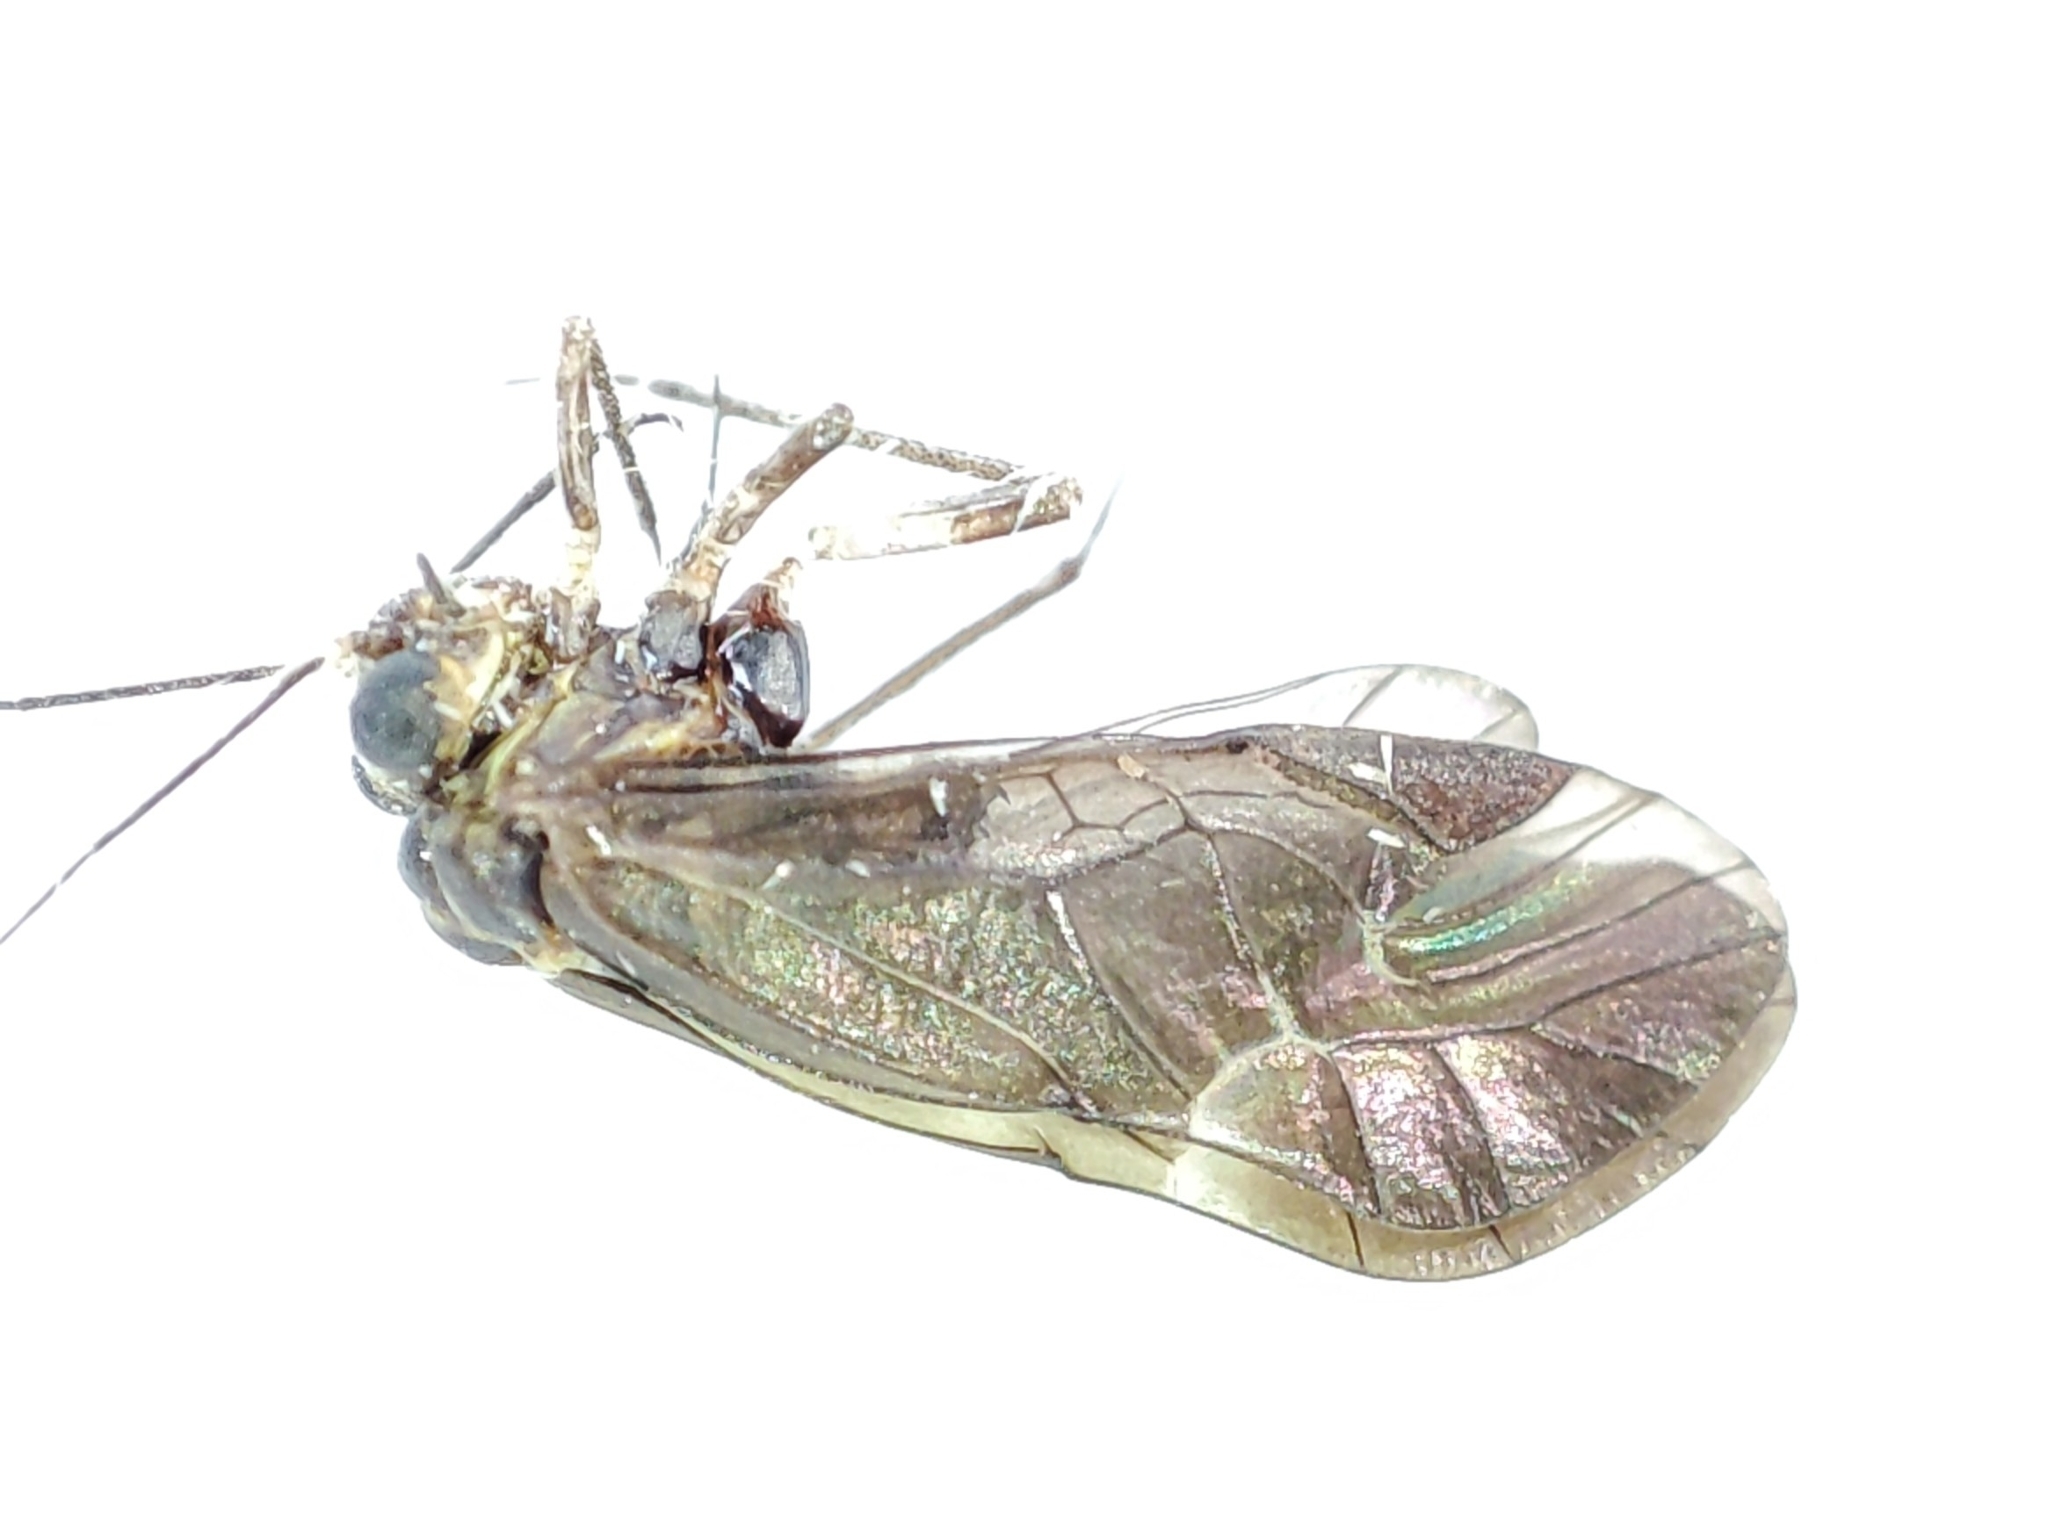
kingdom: Animalia
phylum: Arthropoda
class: Insecta
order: Psocodea
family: Psocidae
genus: Metylophorus
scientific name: Metylophorus nebulosus
